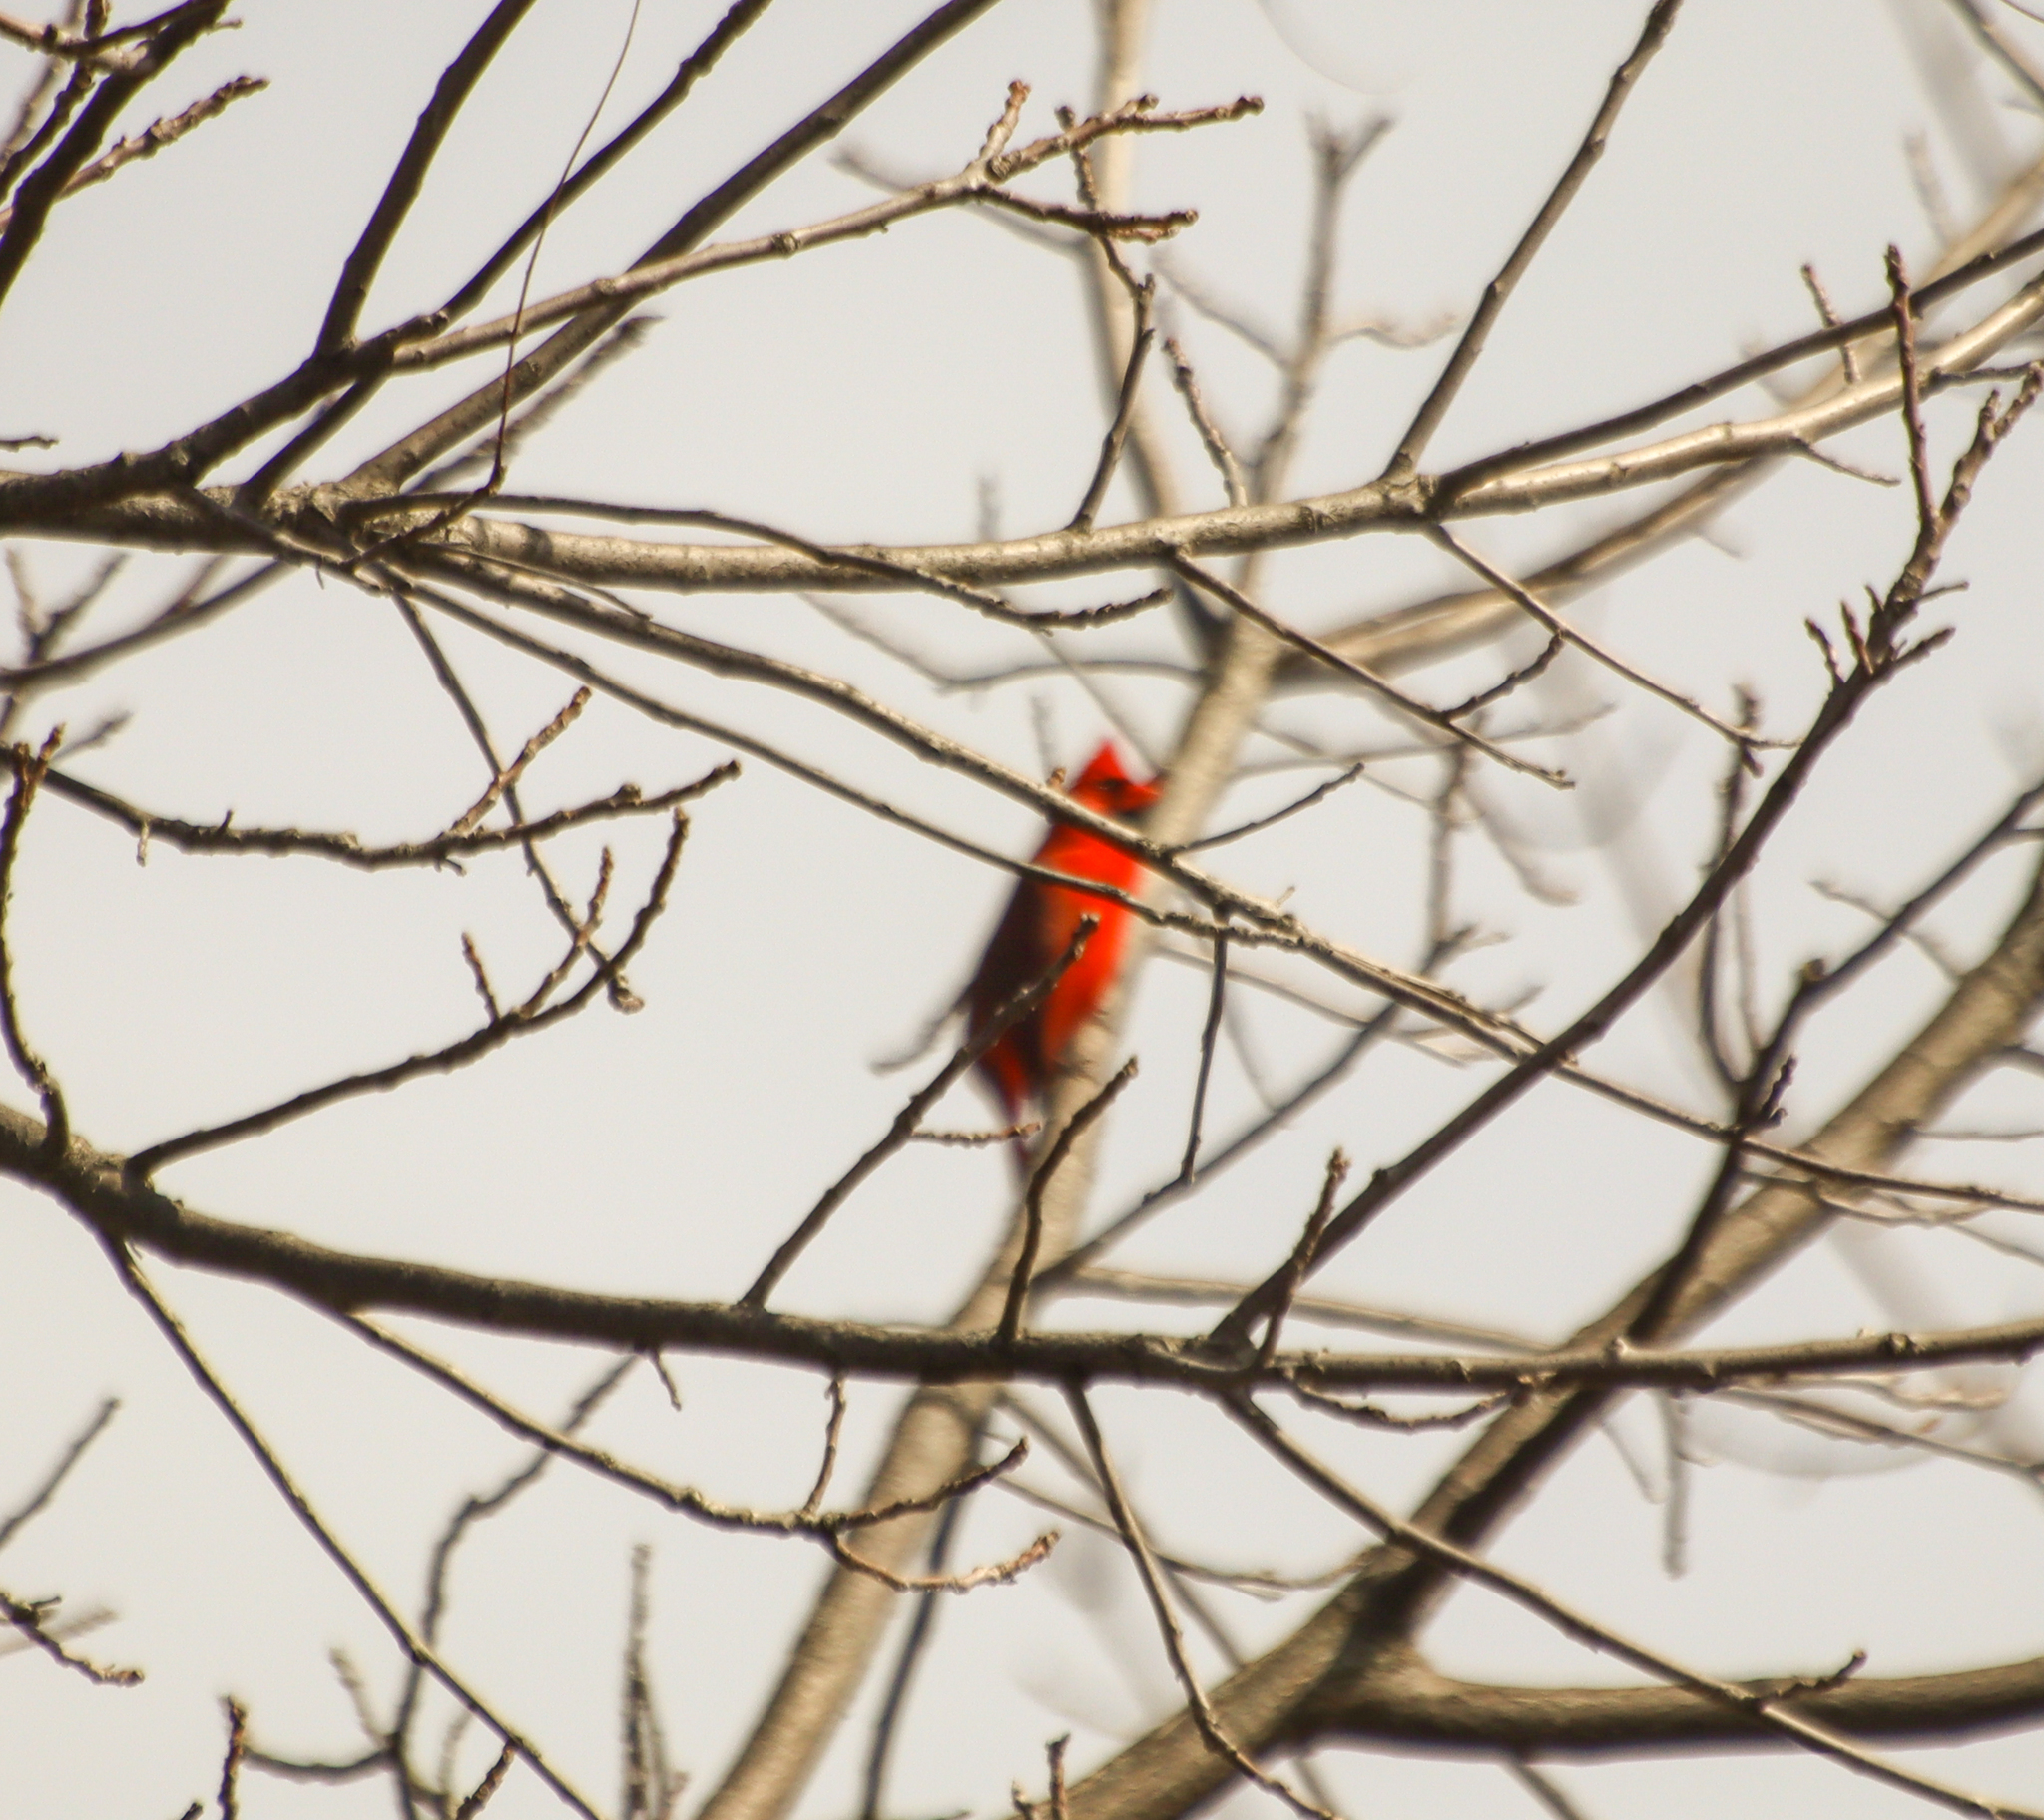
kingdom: Animalia
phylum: Chordata
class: Aves
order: Passeriformes
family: Cardinalidae
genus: Cardinalis
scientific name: Cardinalis cardinalis
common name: Northern cardinal
